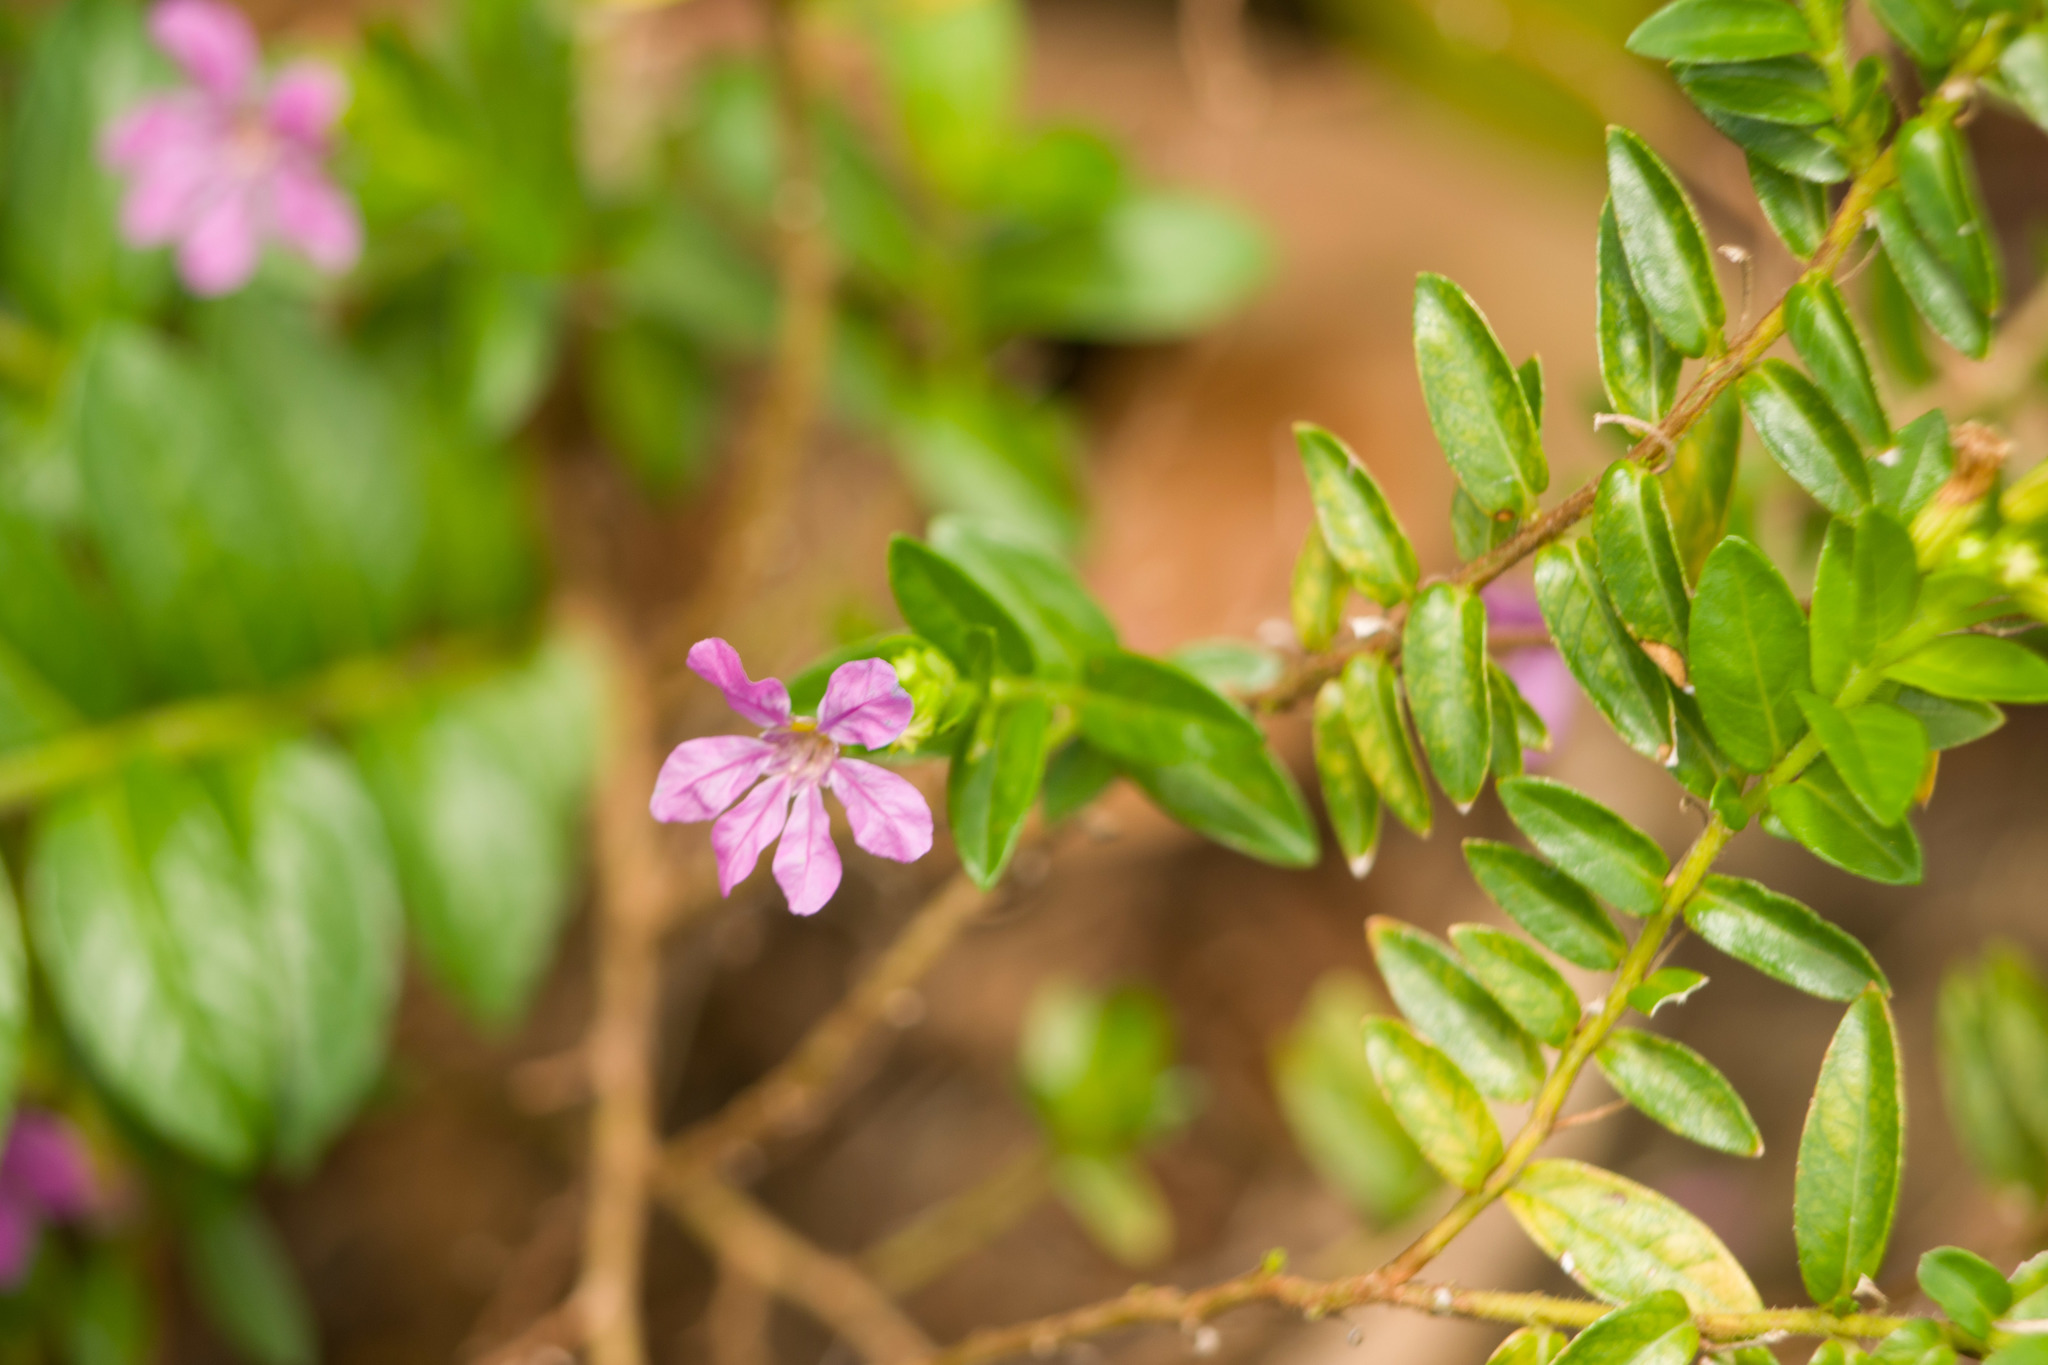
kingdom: Plantae
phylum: Tracheophyta
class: Magnoliopsida
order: Myrtales
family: Lythraceae
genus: Cuphea
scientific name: Cuphea hyssopifolia
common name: False heather
